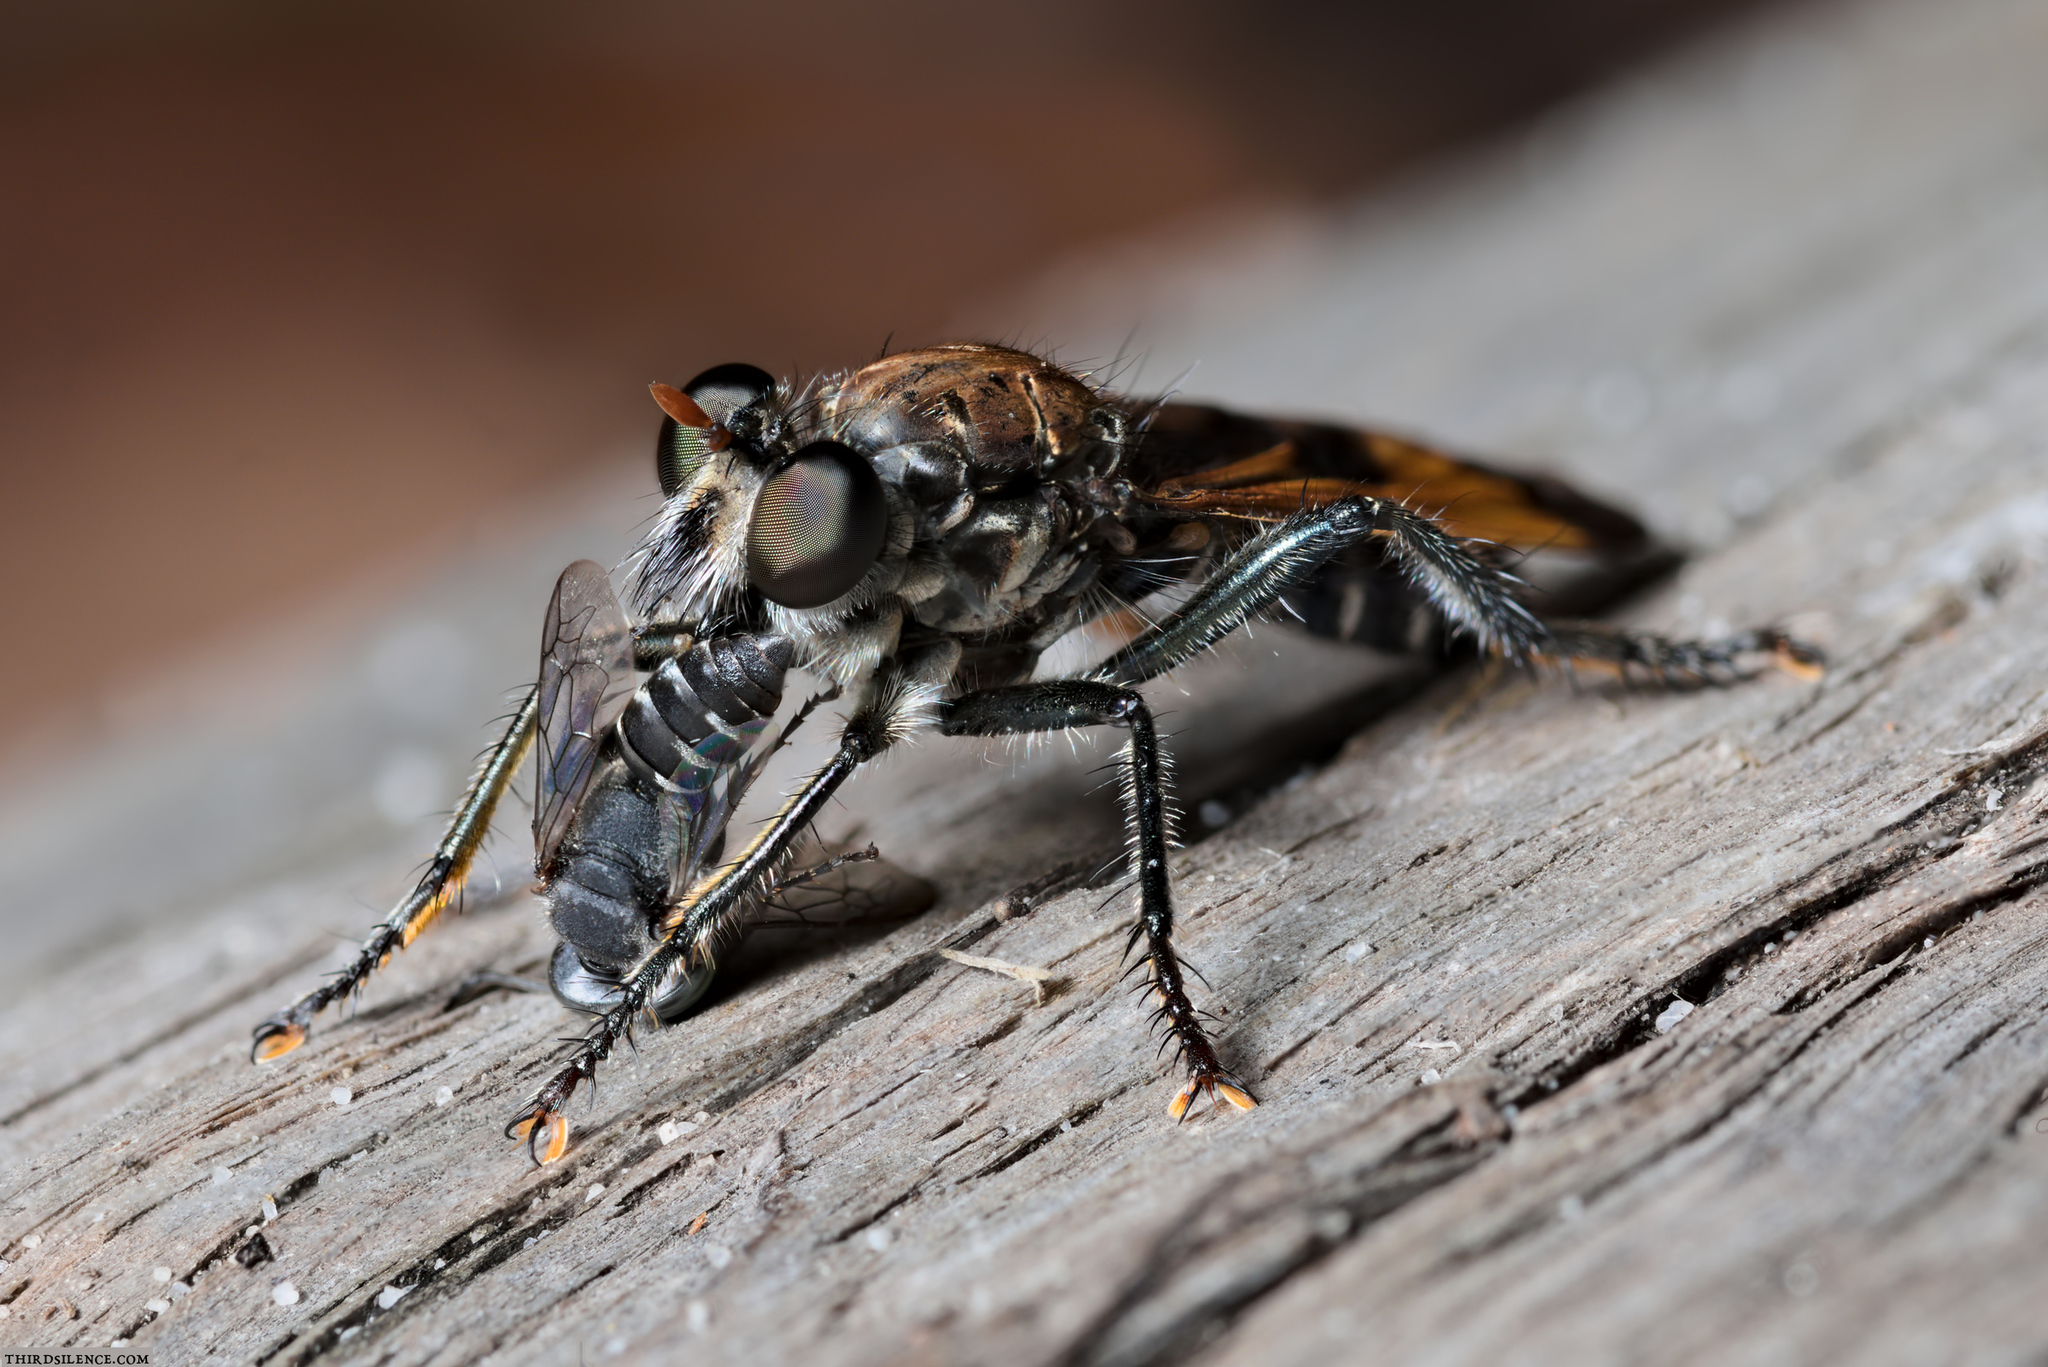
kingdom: Animalia
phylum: Arthropoda
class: Insecta
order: Diptera
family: Asilidae
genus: Orthogonis
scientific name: Orthogonis ornatipennis
